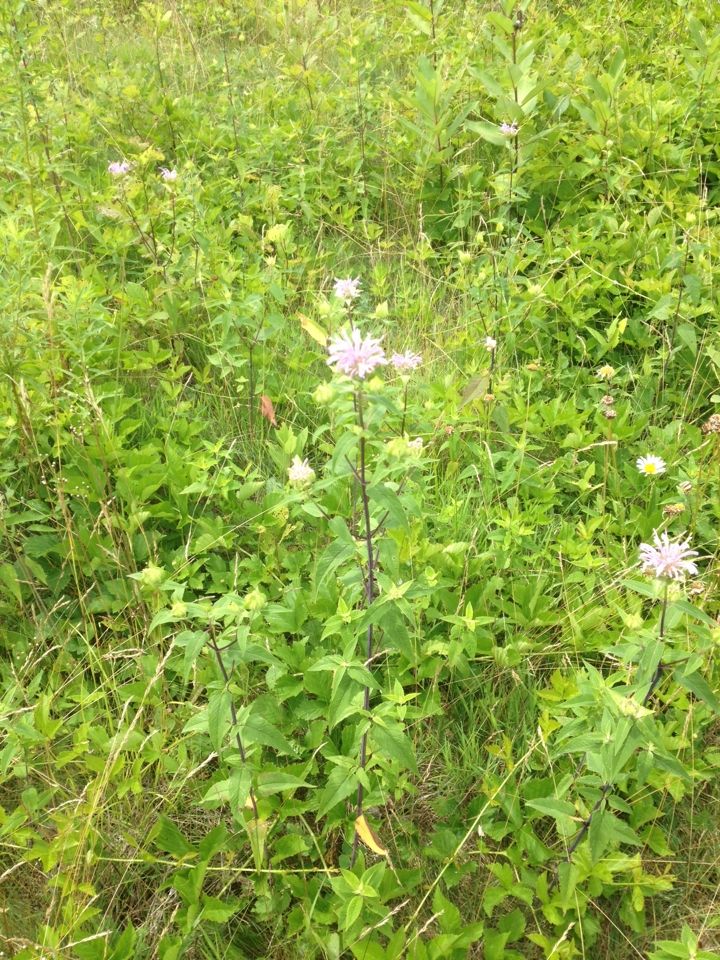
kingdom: Plantae
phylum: Tracheophyta
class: Magnoliopsida
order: Lamiales
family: Lamiaceae
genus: Monarda
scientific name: Monarda fistulosa
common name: Purple beebalm
